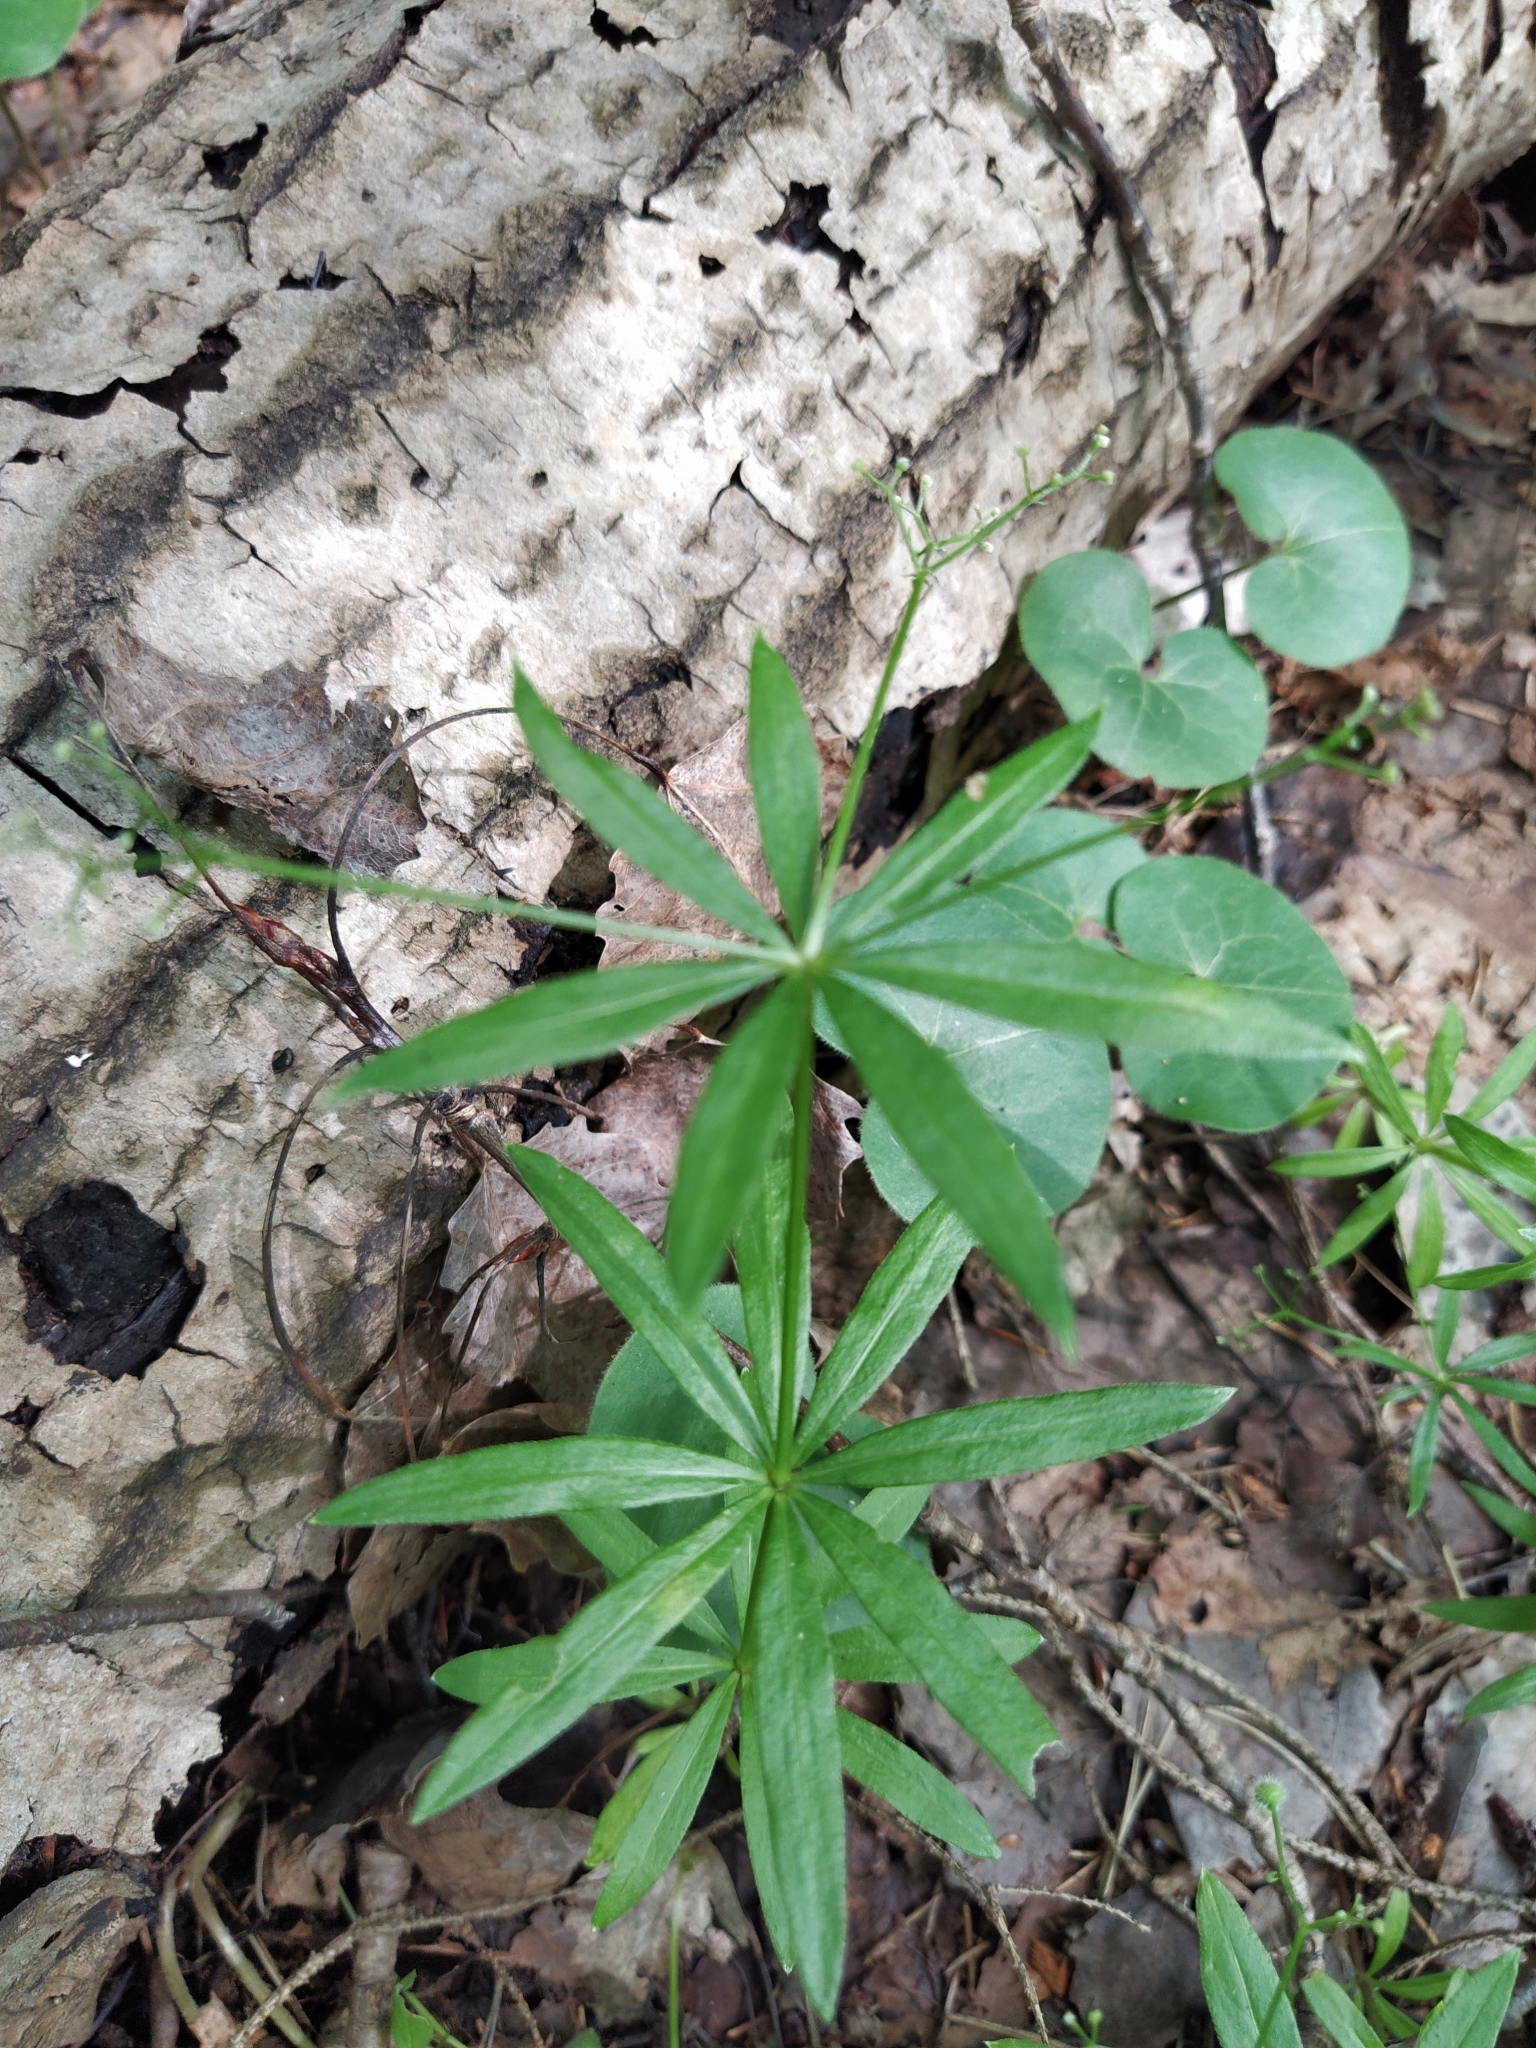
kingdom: Plantae
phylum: Tracheophyta
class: Magnoliopsida
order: Gentianales
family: Rubiaceae
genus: Galium
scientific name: Galium odoratum
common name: Sweet woodruff
